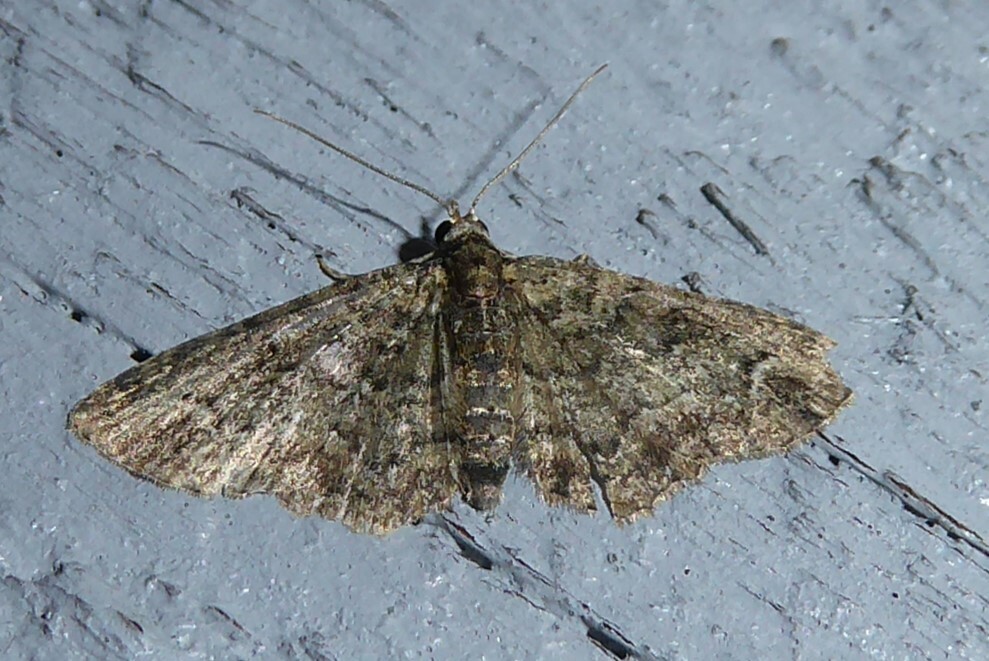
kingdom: Animalia
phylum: Arthropoda
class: Insecta
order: Lepidoptera
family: Geometridae
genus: Pasiphilodes
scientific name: Pasiphilodes testulata
